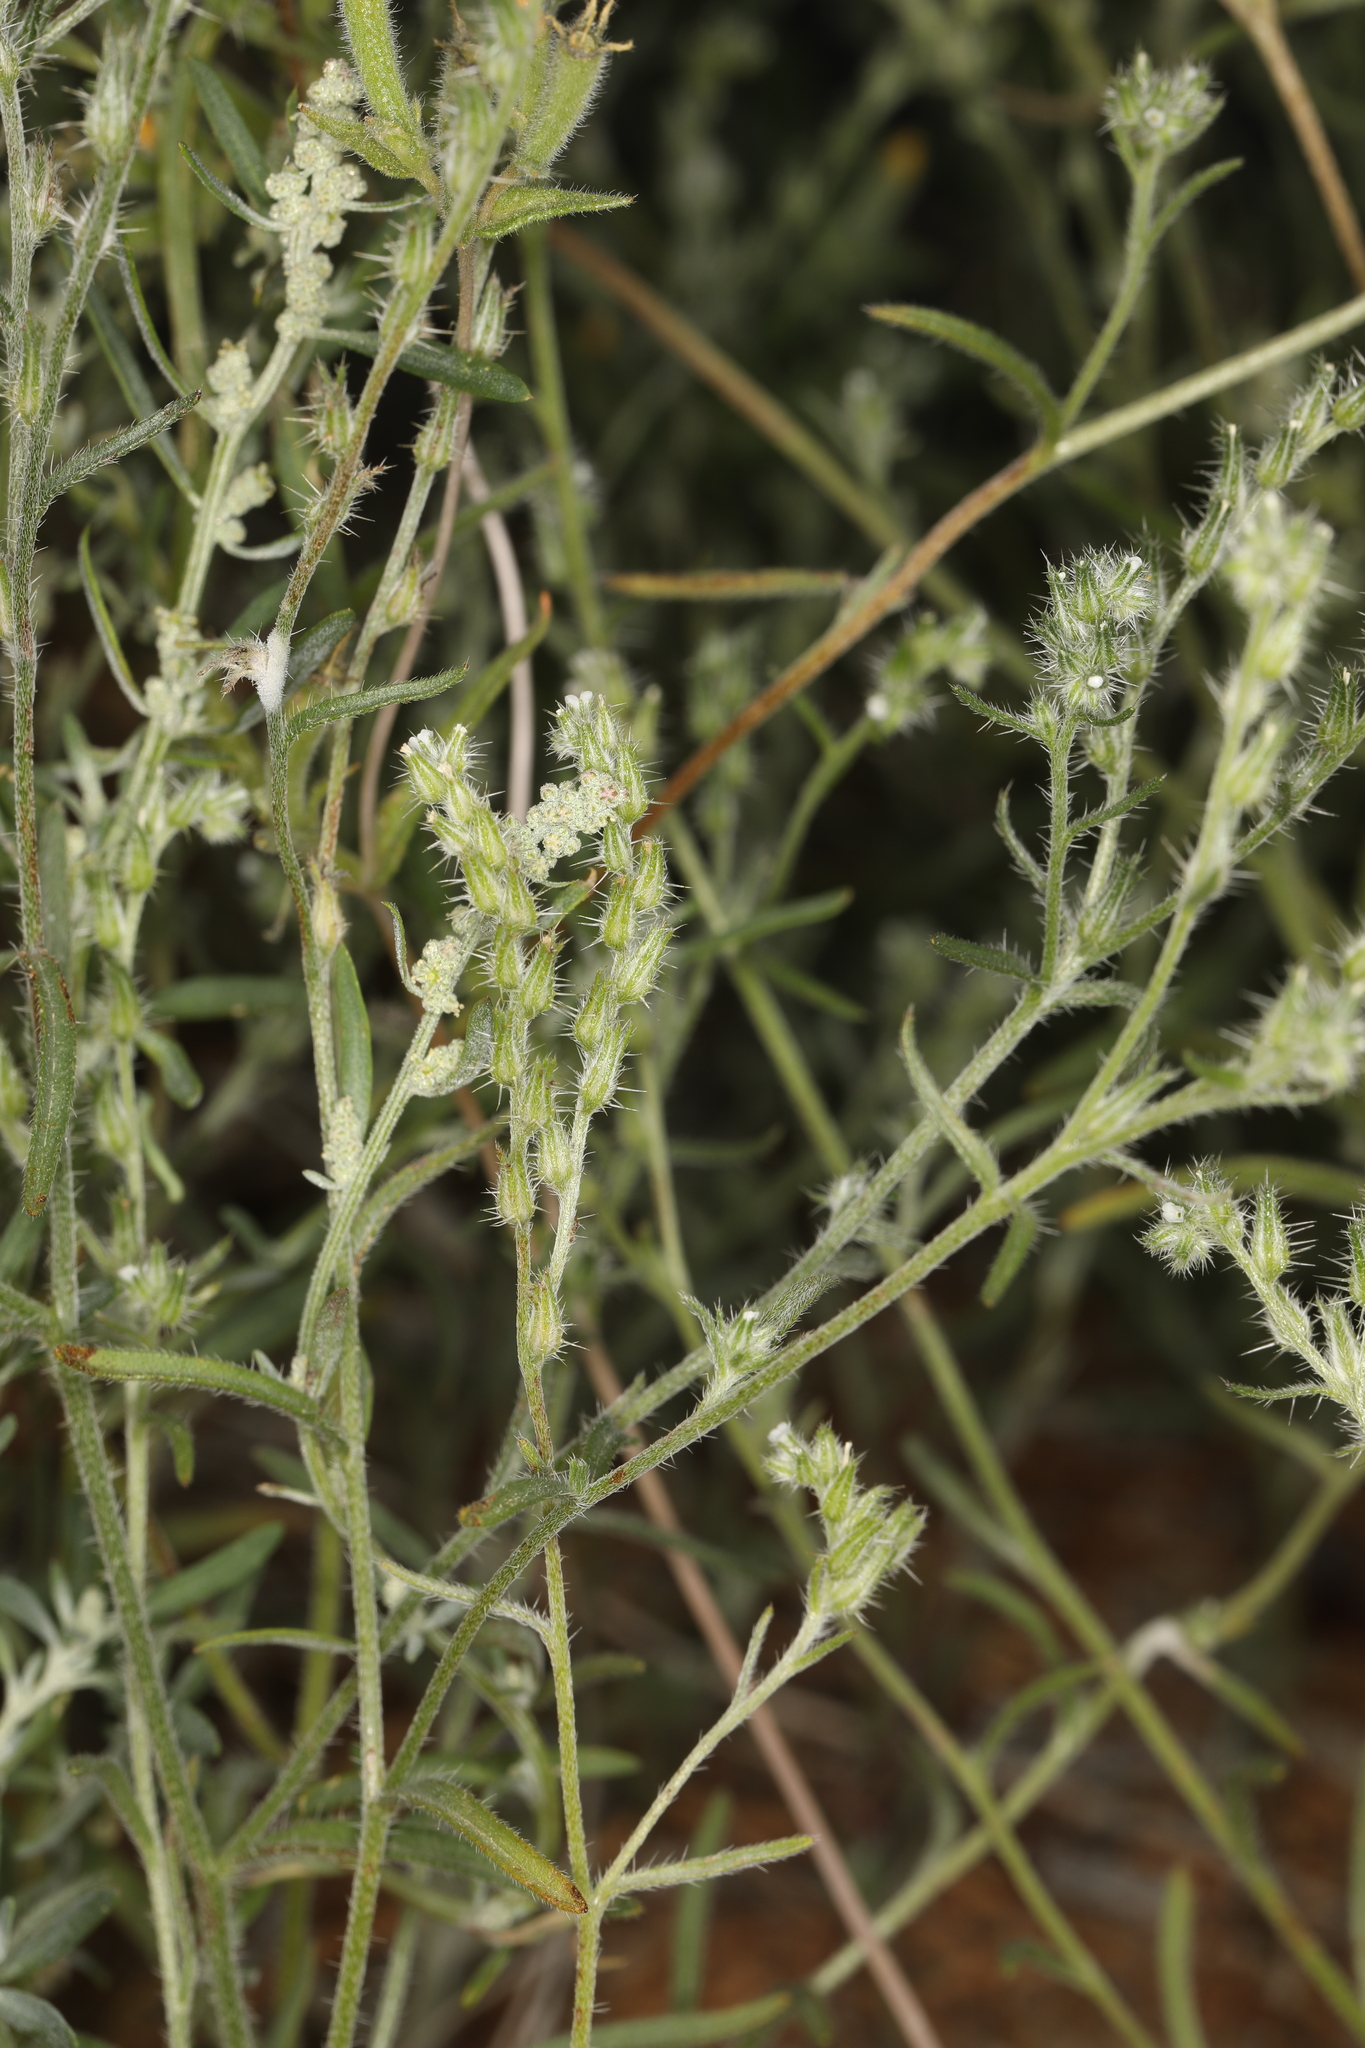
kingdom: Plantae
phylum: Tracheophyta
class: Magnoliopsida
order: Boraginales
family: Boraginaceae
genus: Cryptantha
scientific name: Cryptantha scoparia
